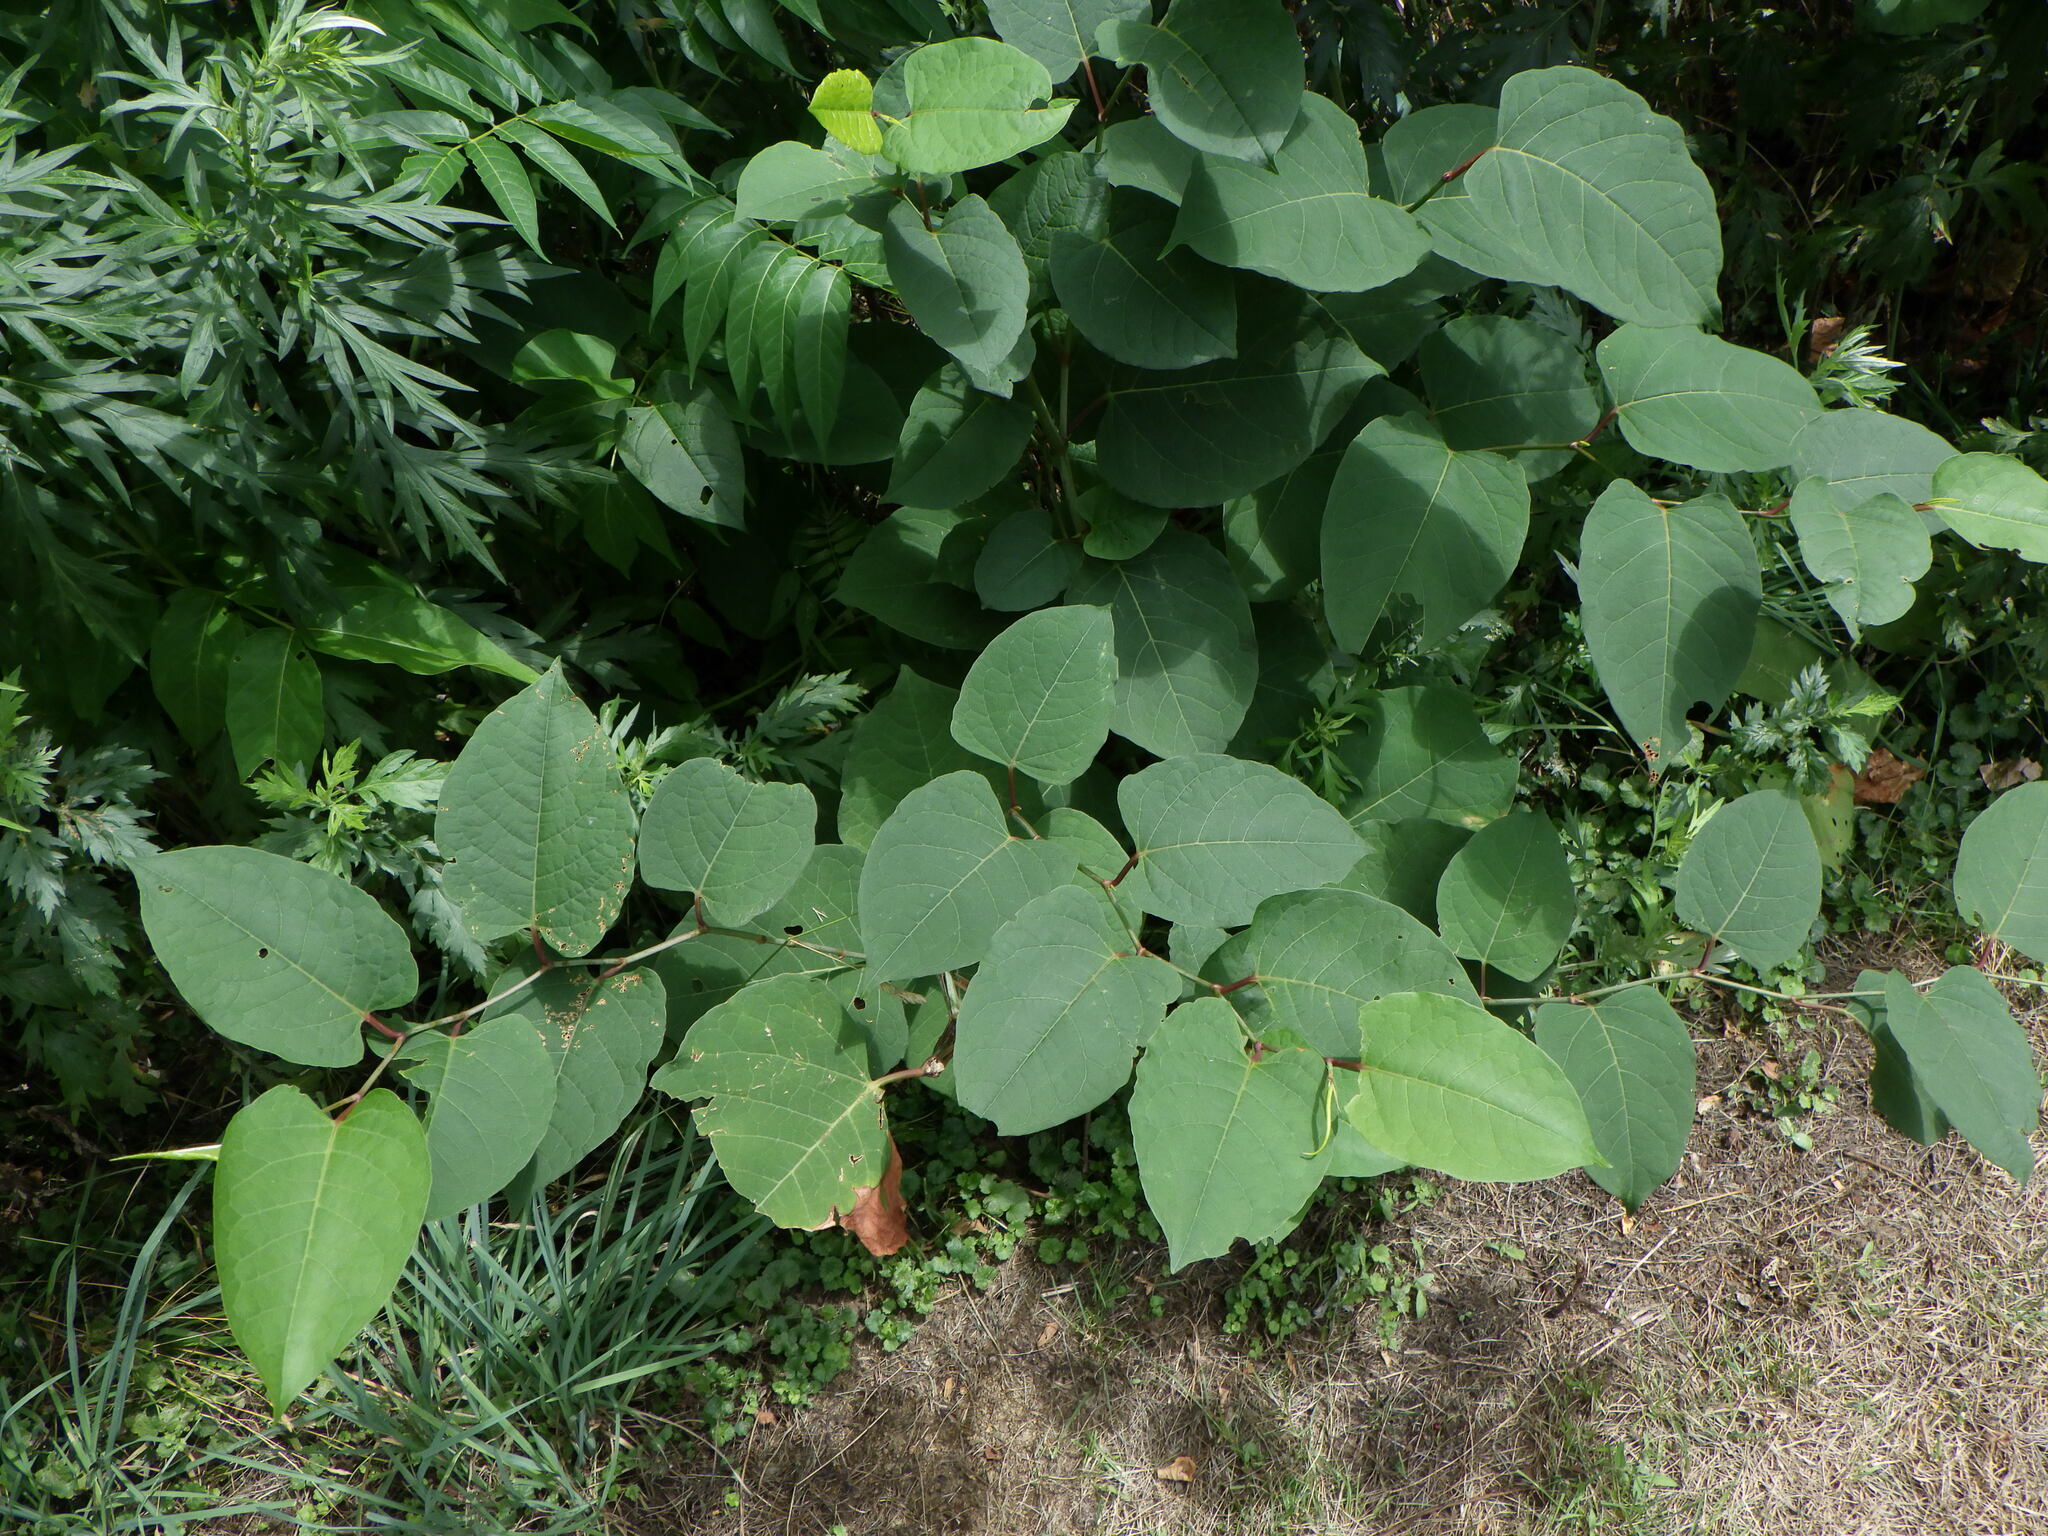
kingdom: Plantae
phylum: Tracheophyta
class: Magnoliopsida
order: Caryophyllales
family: Polygonaceae
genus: Reynoutria
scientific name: Reynoutria japonica
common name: Japanese knotweed
